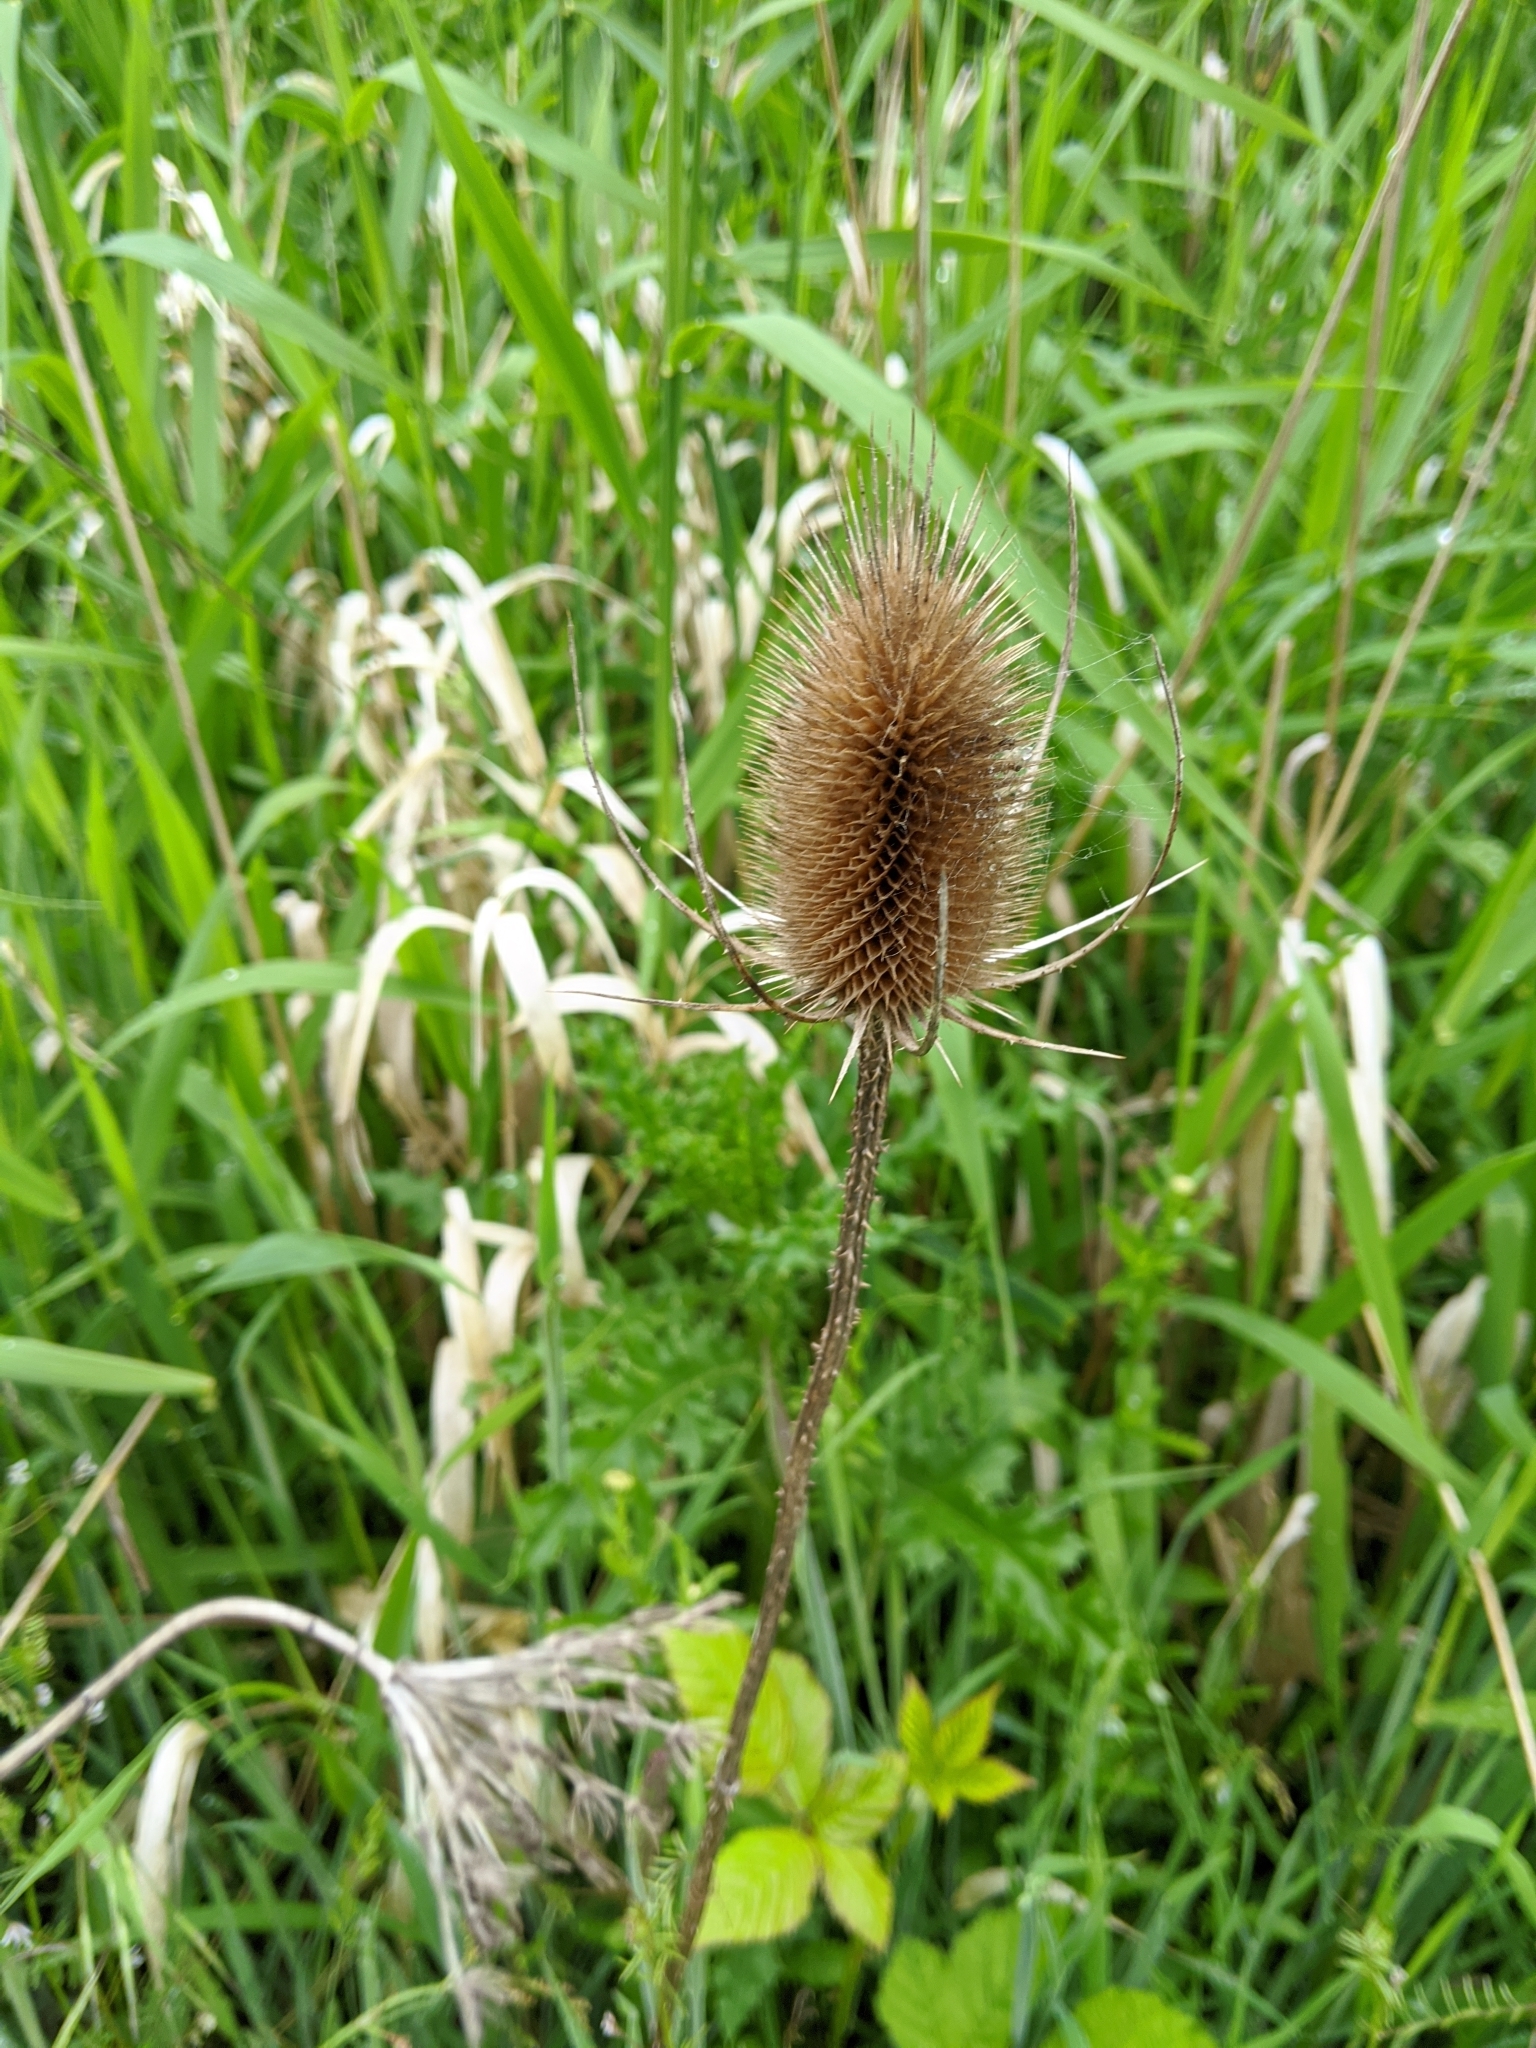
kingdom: Plantae
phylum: Tracheophyta
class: Magnoliopsida
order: Dipsacales
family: Caprifoliaceae
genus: Dipsacus
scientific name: Dipsacus fullonum
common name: Teasel
